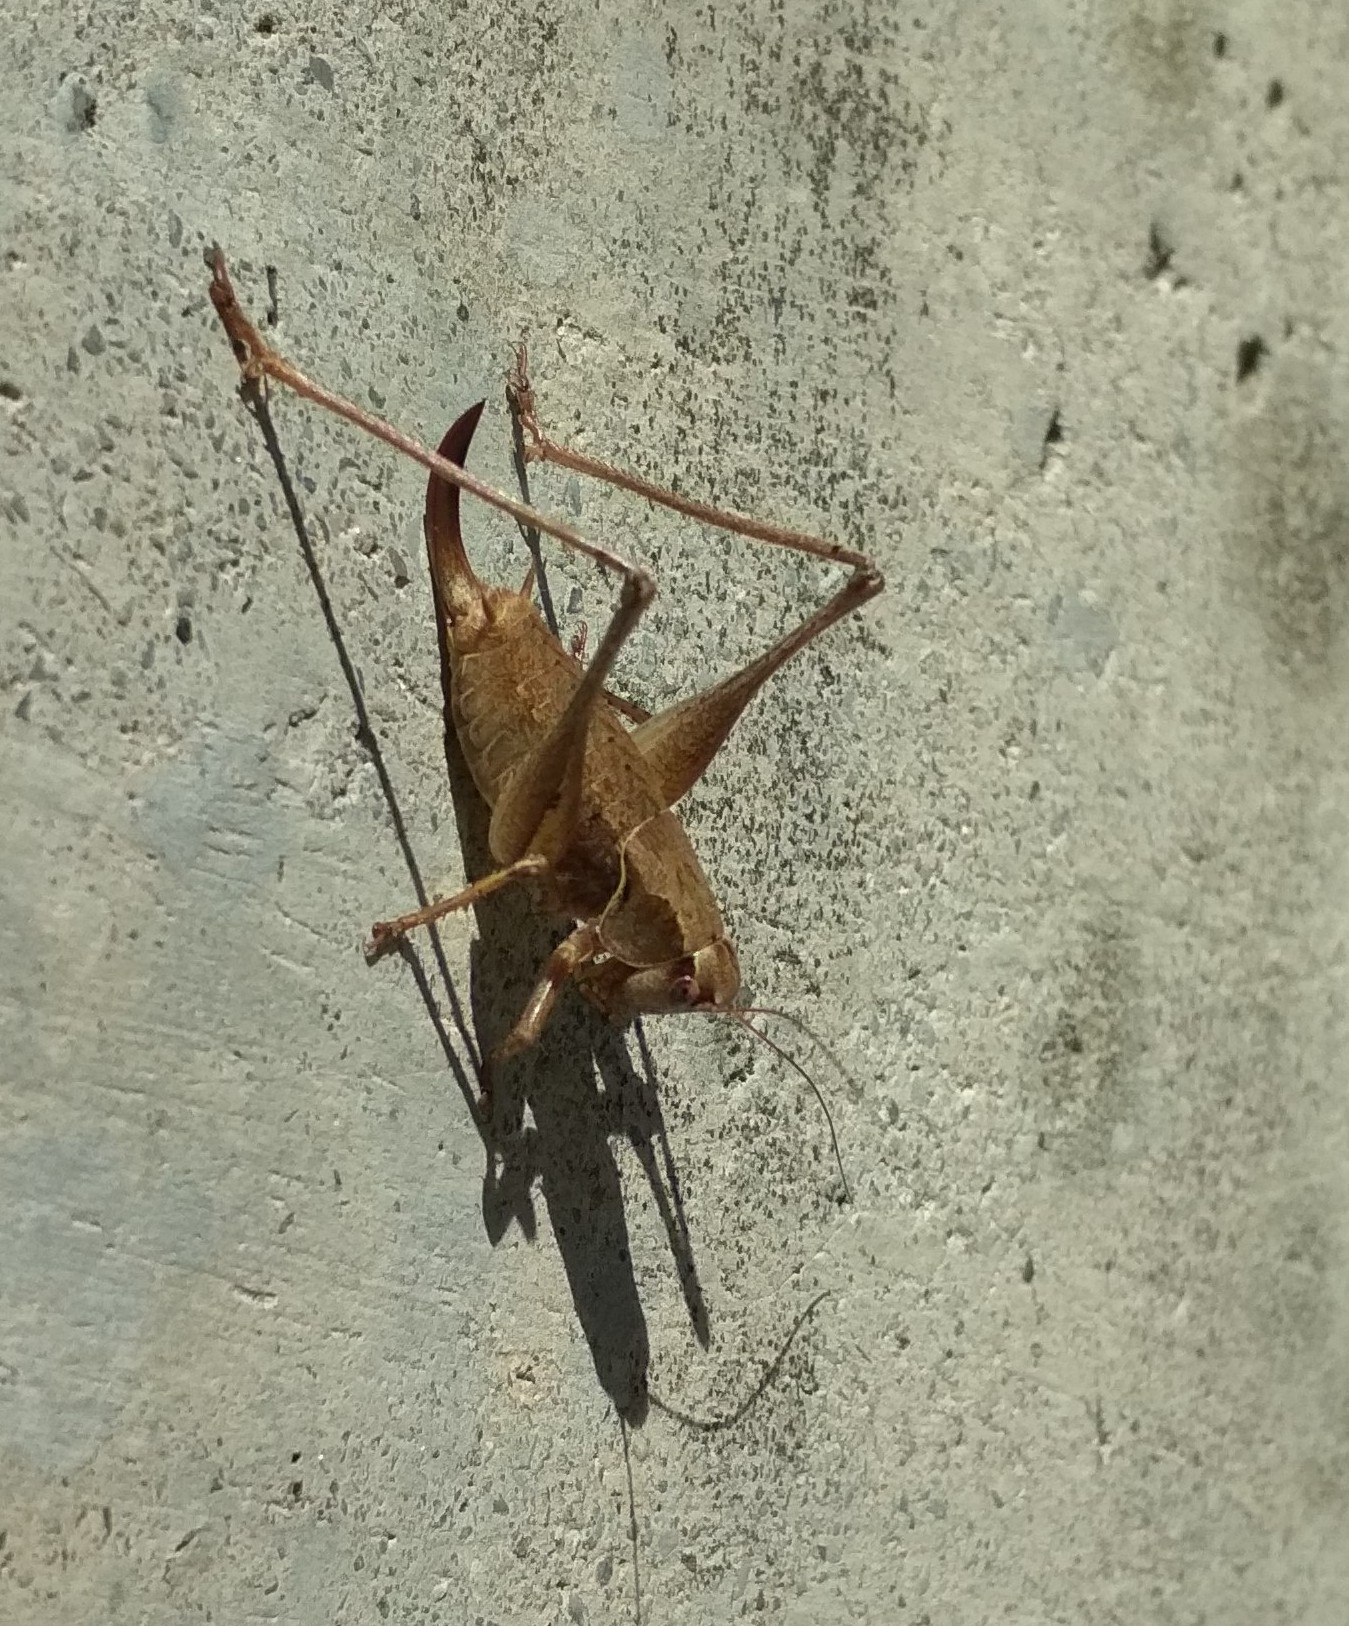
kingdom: Animalia
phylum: Arthropoda
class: Insecta
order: Orthoptera
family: Tettigoniidae
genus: Pholidoptera
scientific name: Pholidoptera griseoaptera
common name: Dark bush-cricket
